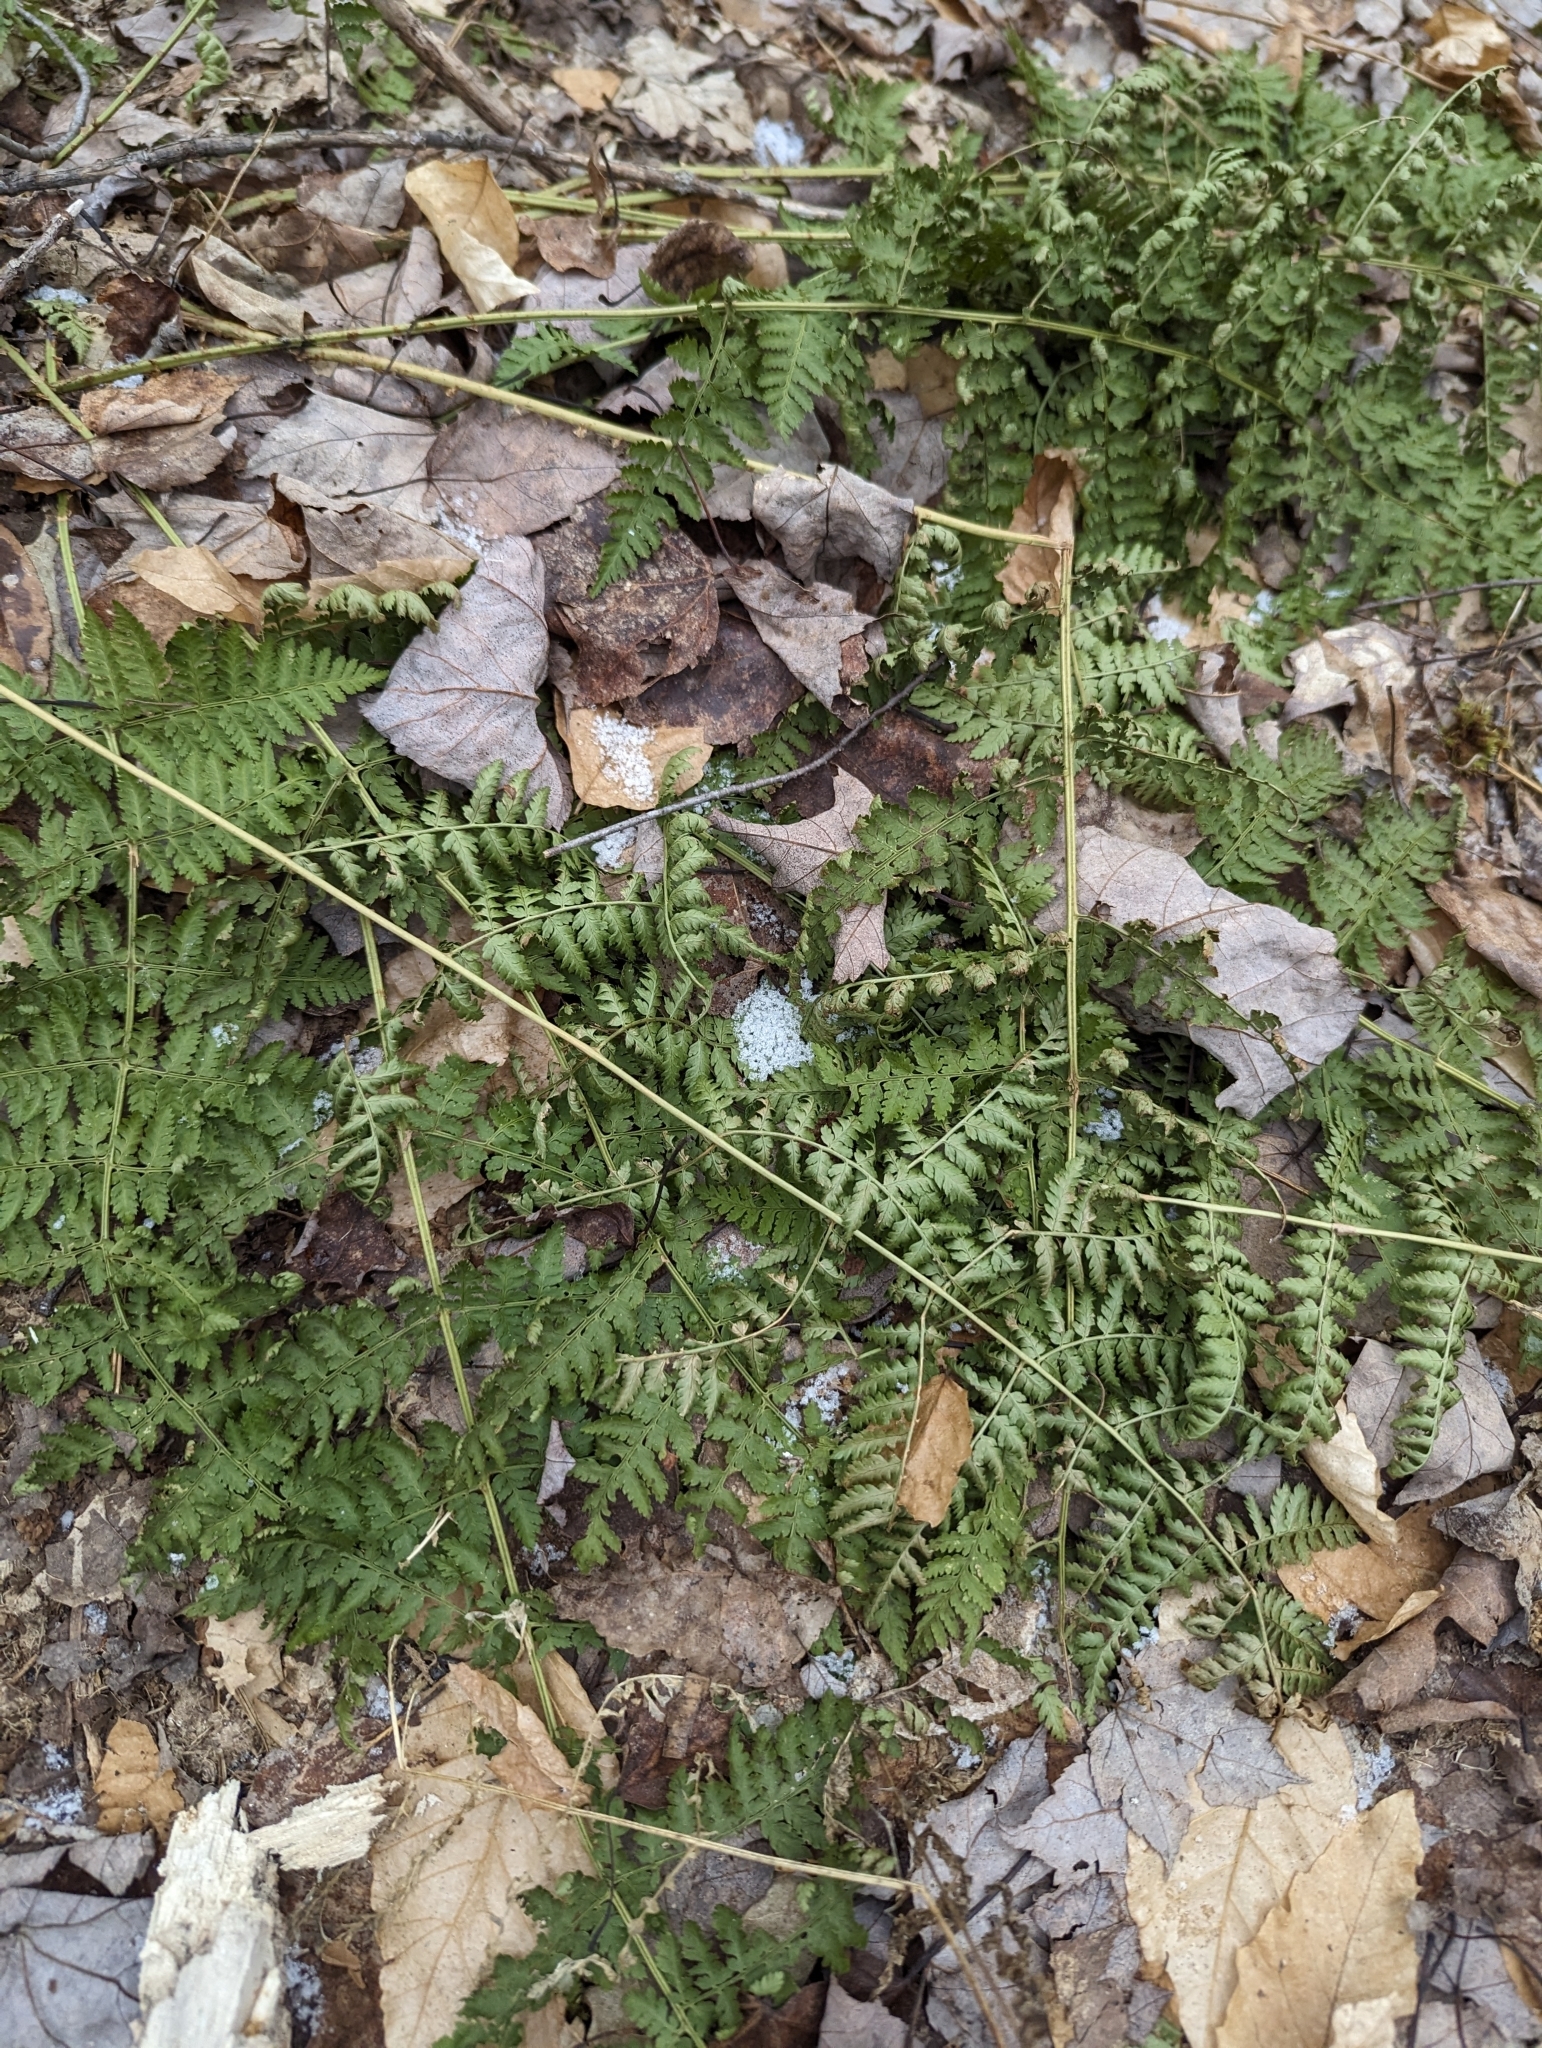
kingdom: Plantae
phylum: Tracheophyta
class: Polypodiopsida
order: Polypodiales
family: Dryopteridaceae
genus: Dryopteris
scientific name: Dryopteris intermedia
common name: Evergreen wood fern
